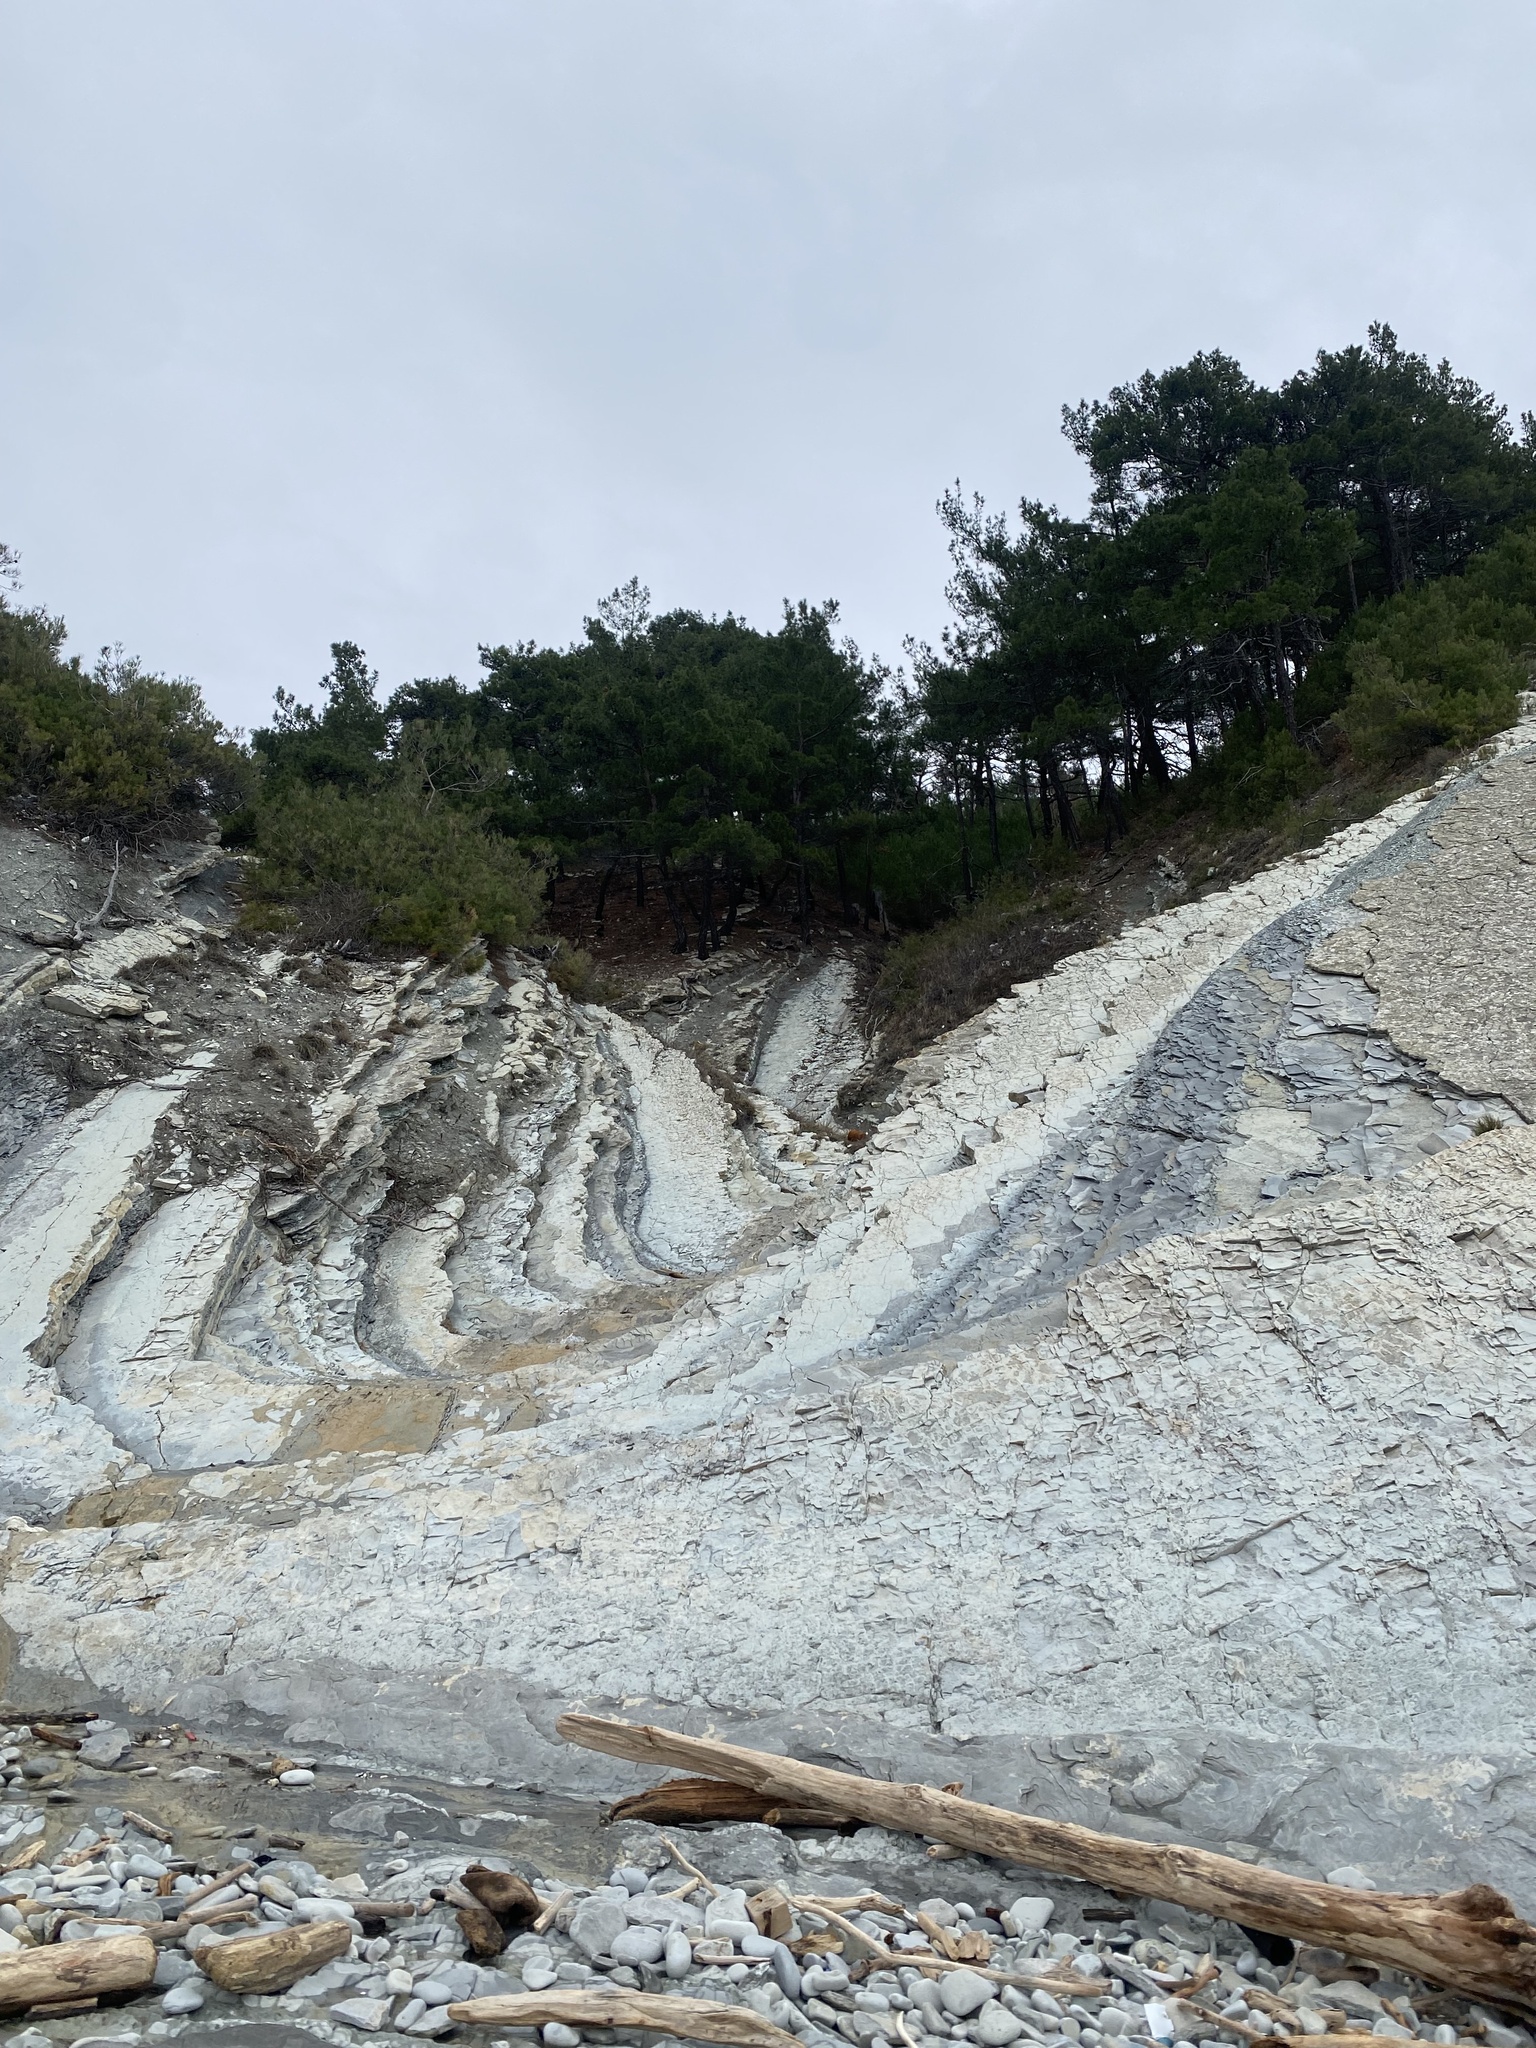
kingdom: Plantae
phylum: Tracheophyta
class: Pinopsida
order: Pinales
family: Pinaceae
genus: Pinus
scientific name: Pinus brutia
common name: Turkish pine
